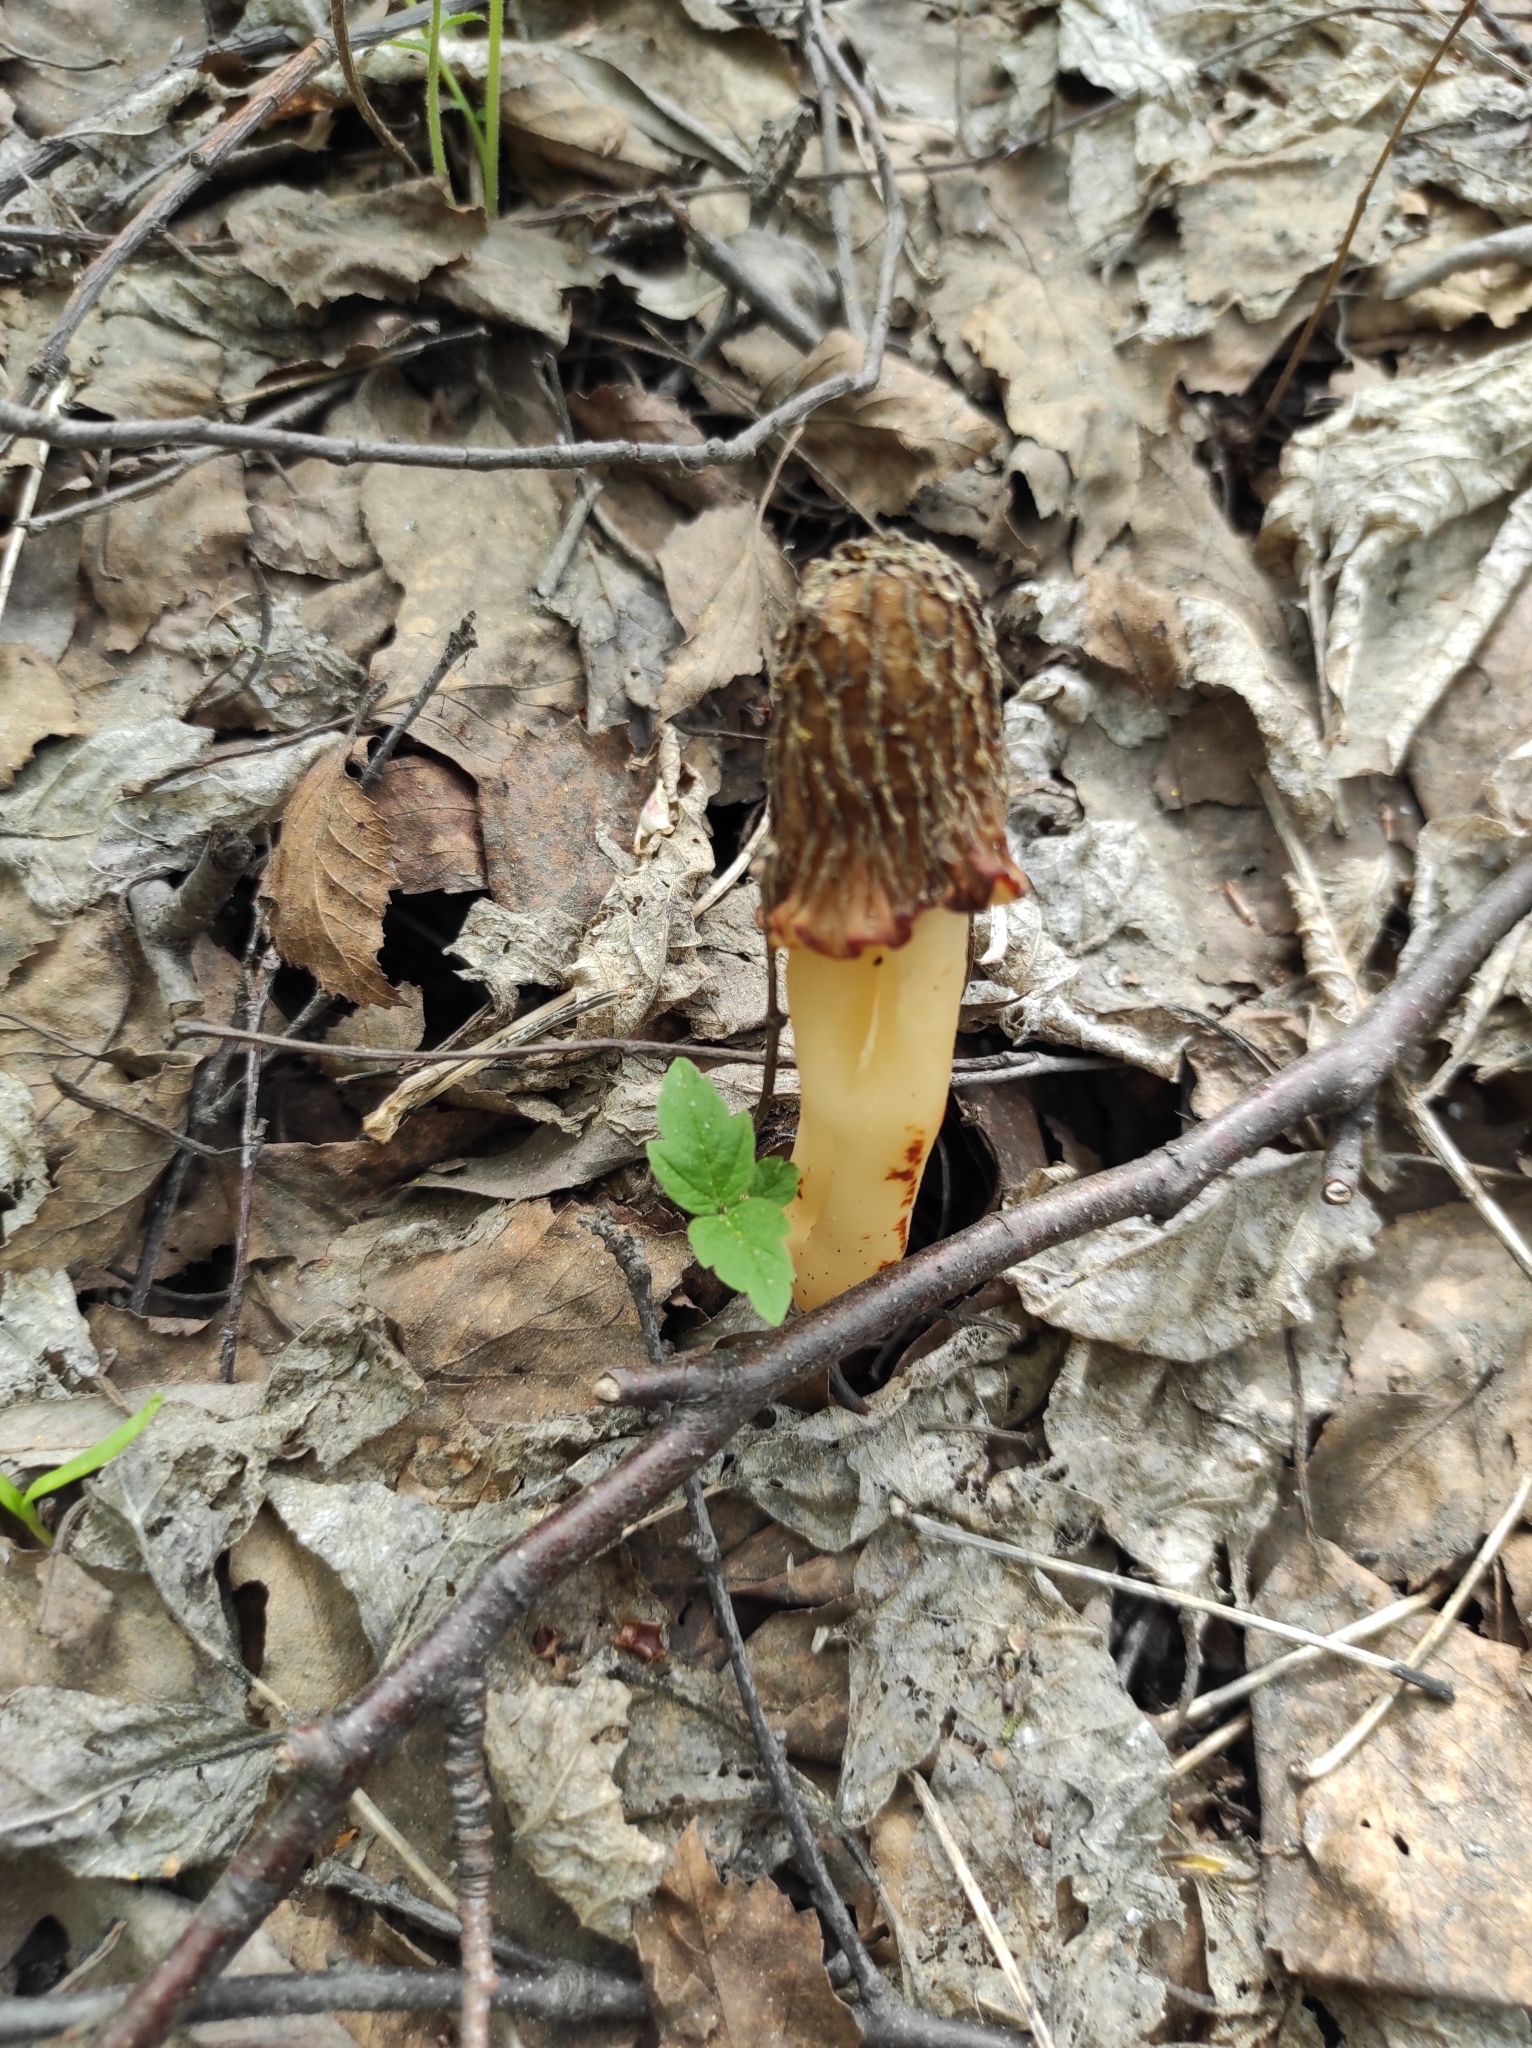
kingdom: Fungi
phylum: Ascomycota
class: Pezizomycetes
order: Pezizales
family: Morchellaceae
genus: Verpa
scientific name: Verpa bohemica
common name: Wrinkled thimble morel
